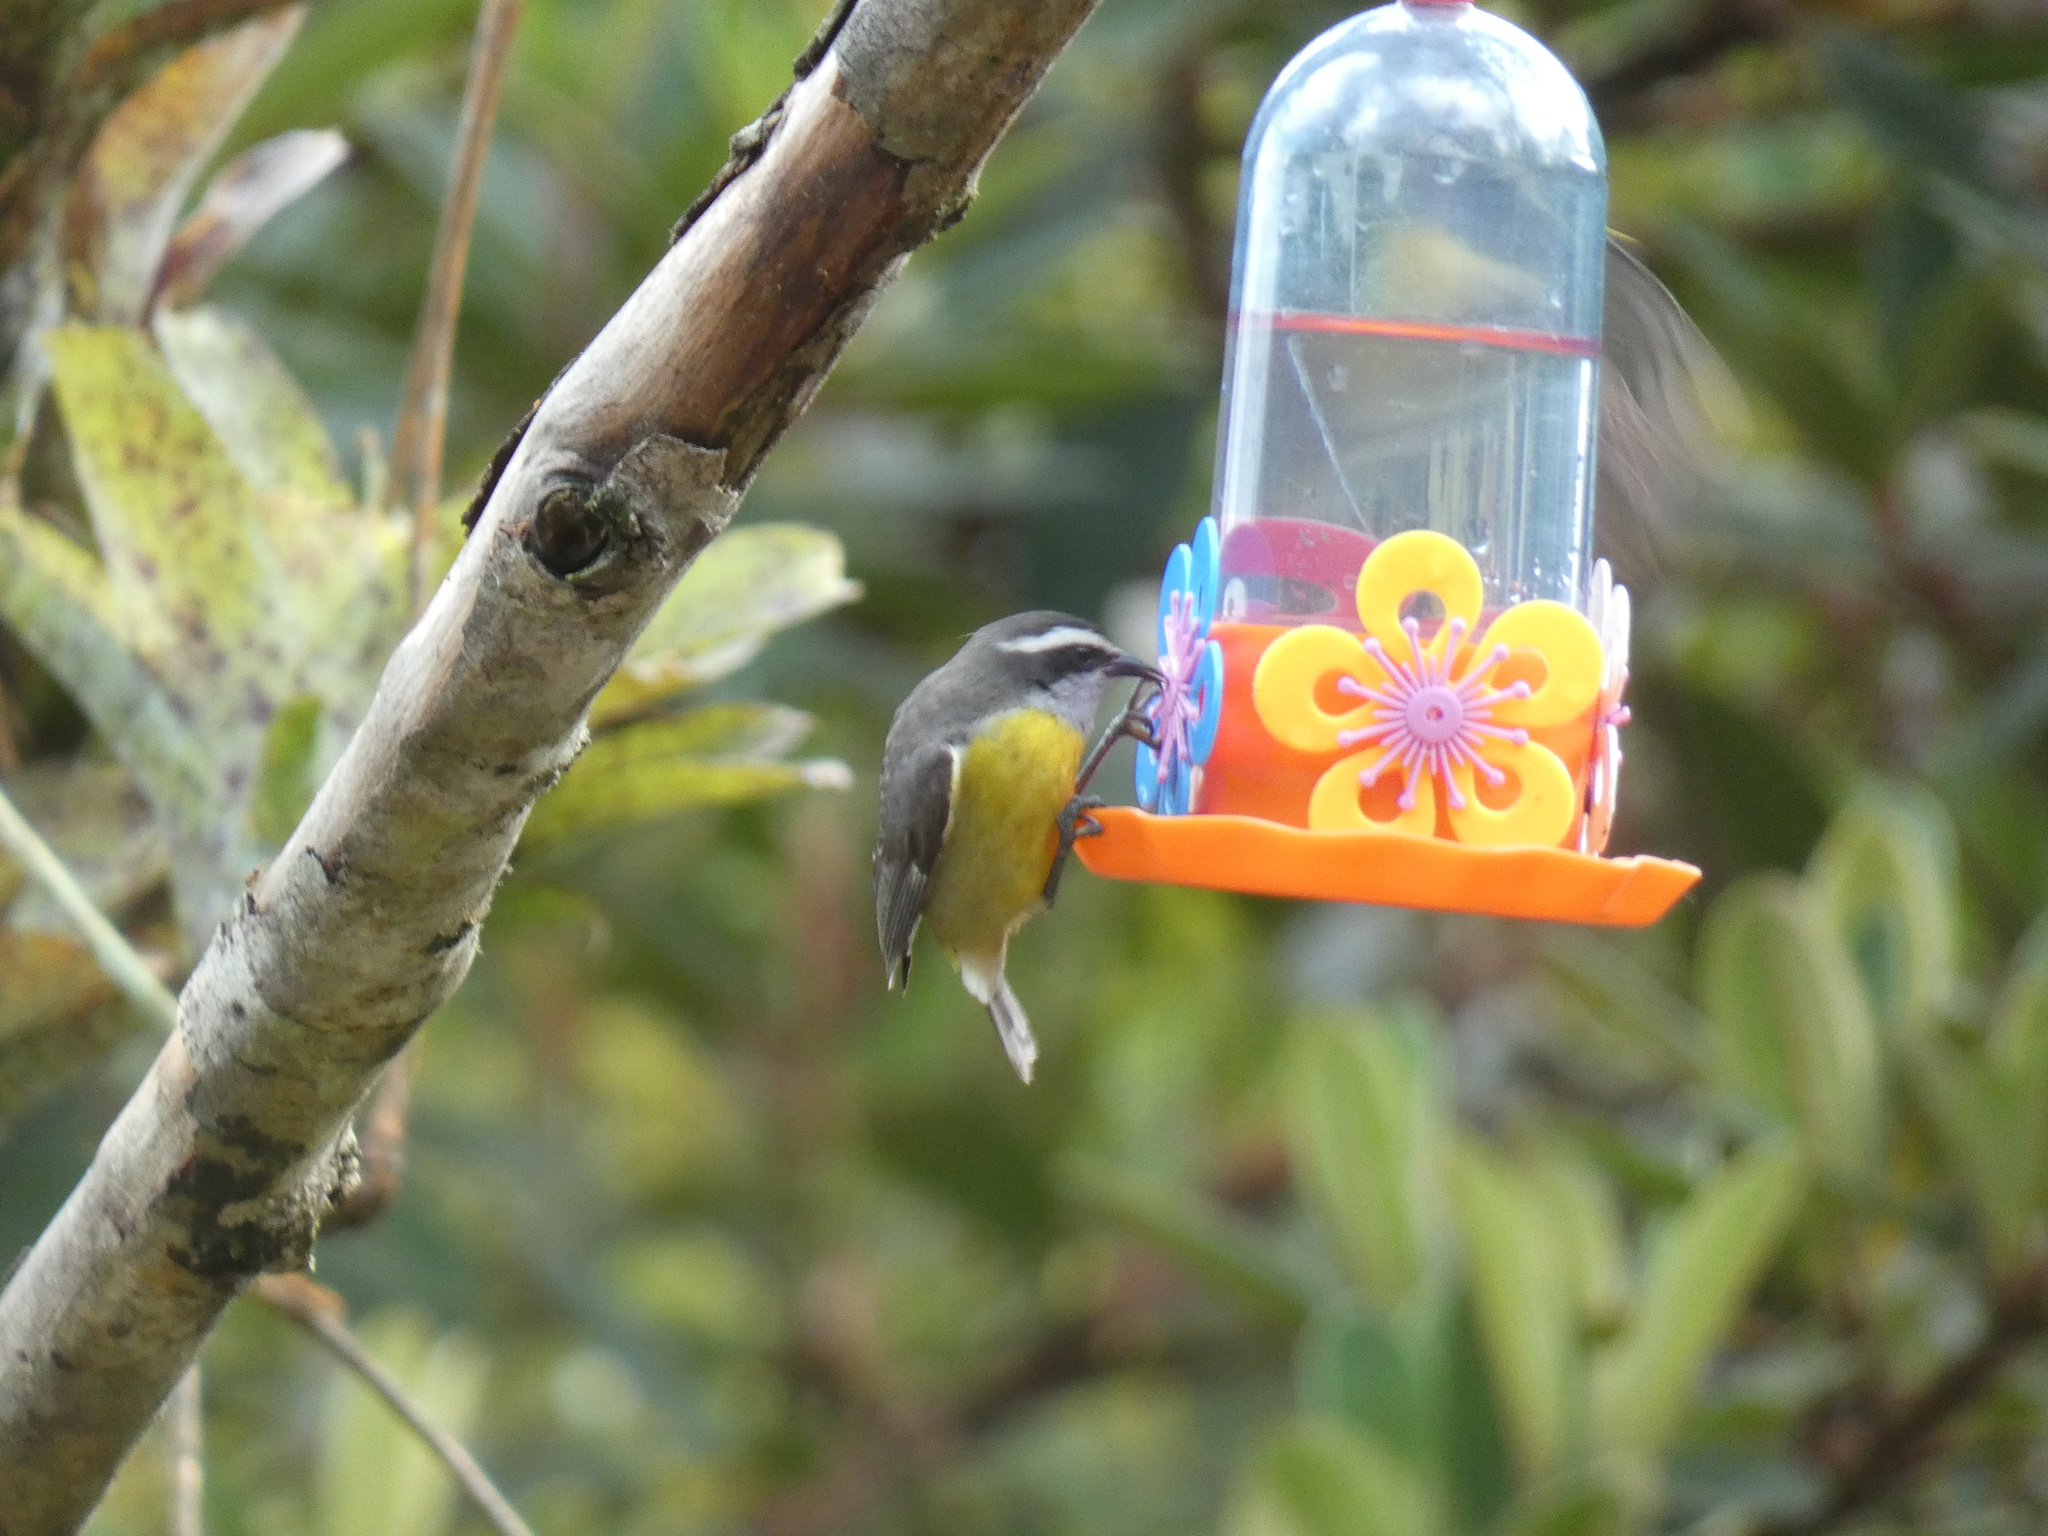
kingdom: Animalia
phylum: Chordata
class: Aves
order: Passeriformes
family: Thraupidae
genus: Coereba
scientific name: Coereba flaveola
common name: Bananaquit
